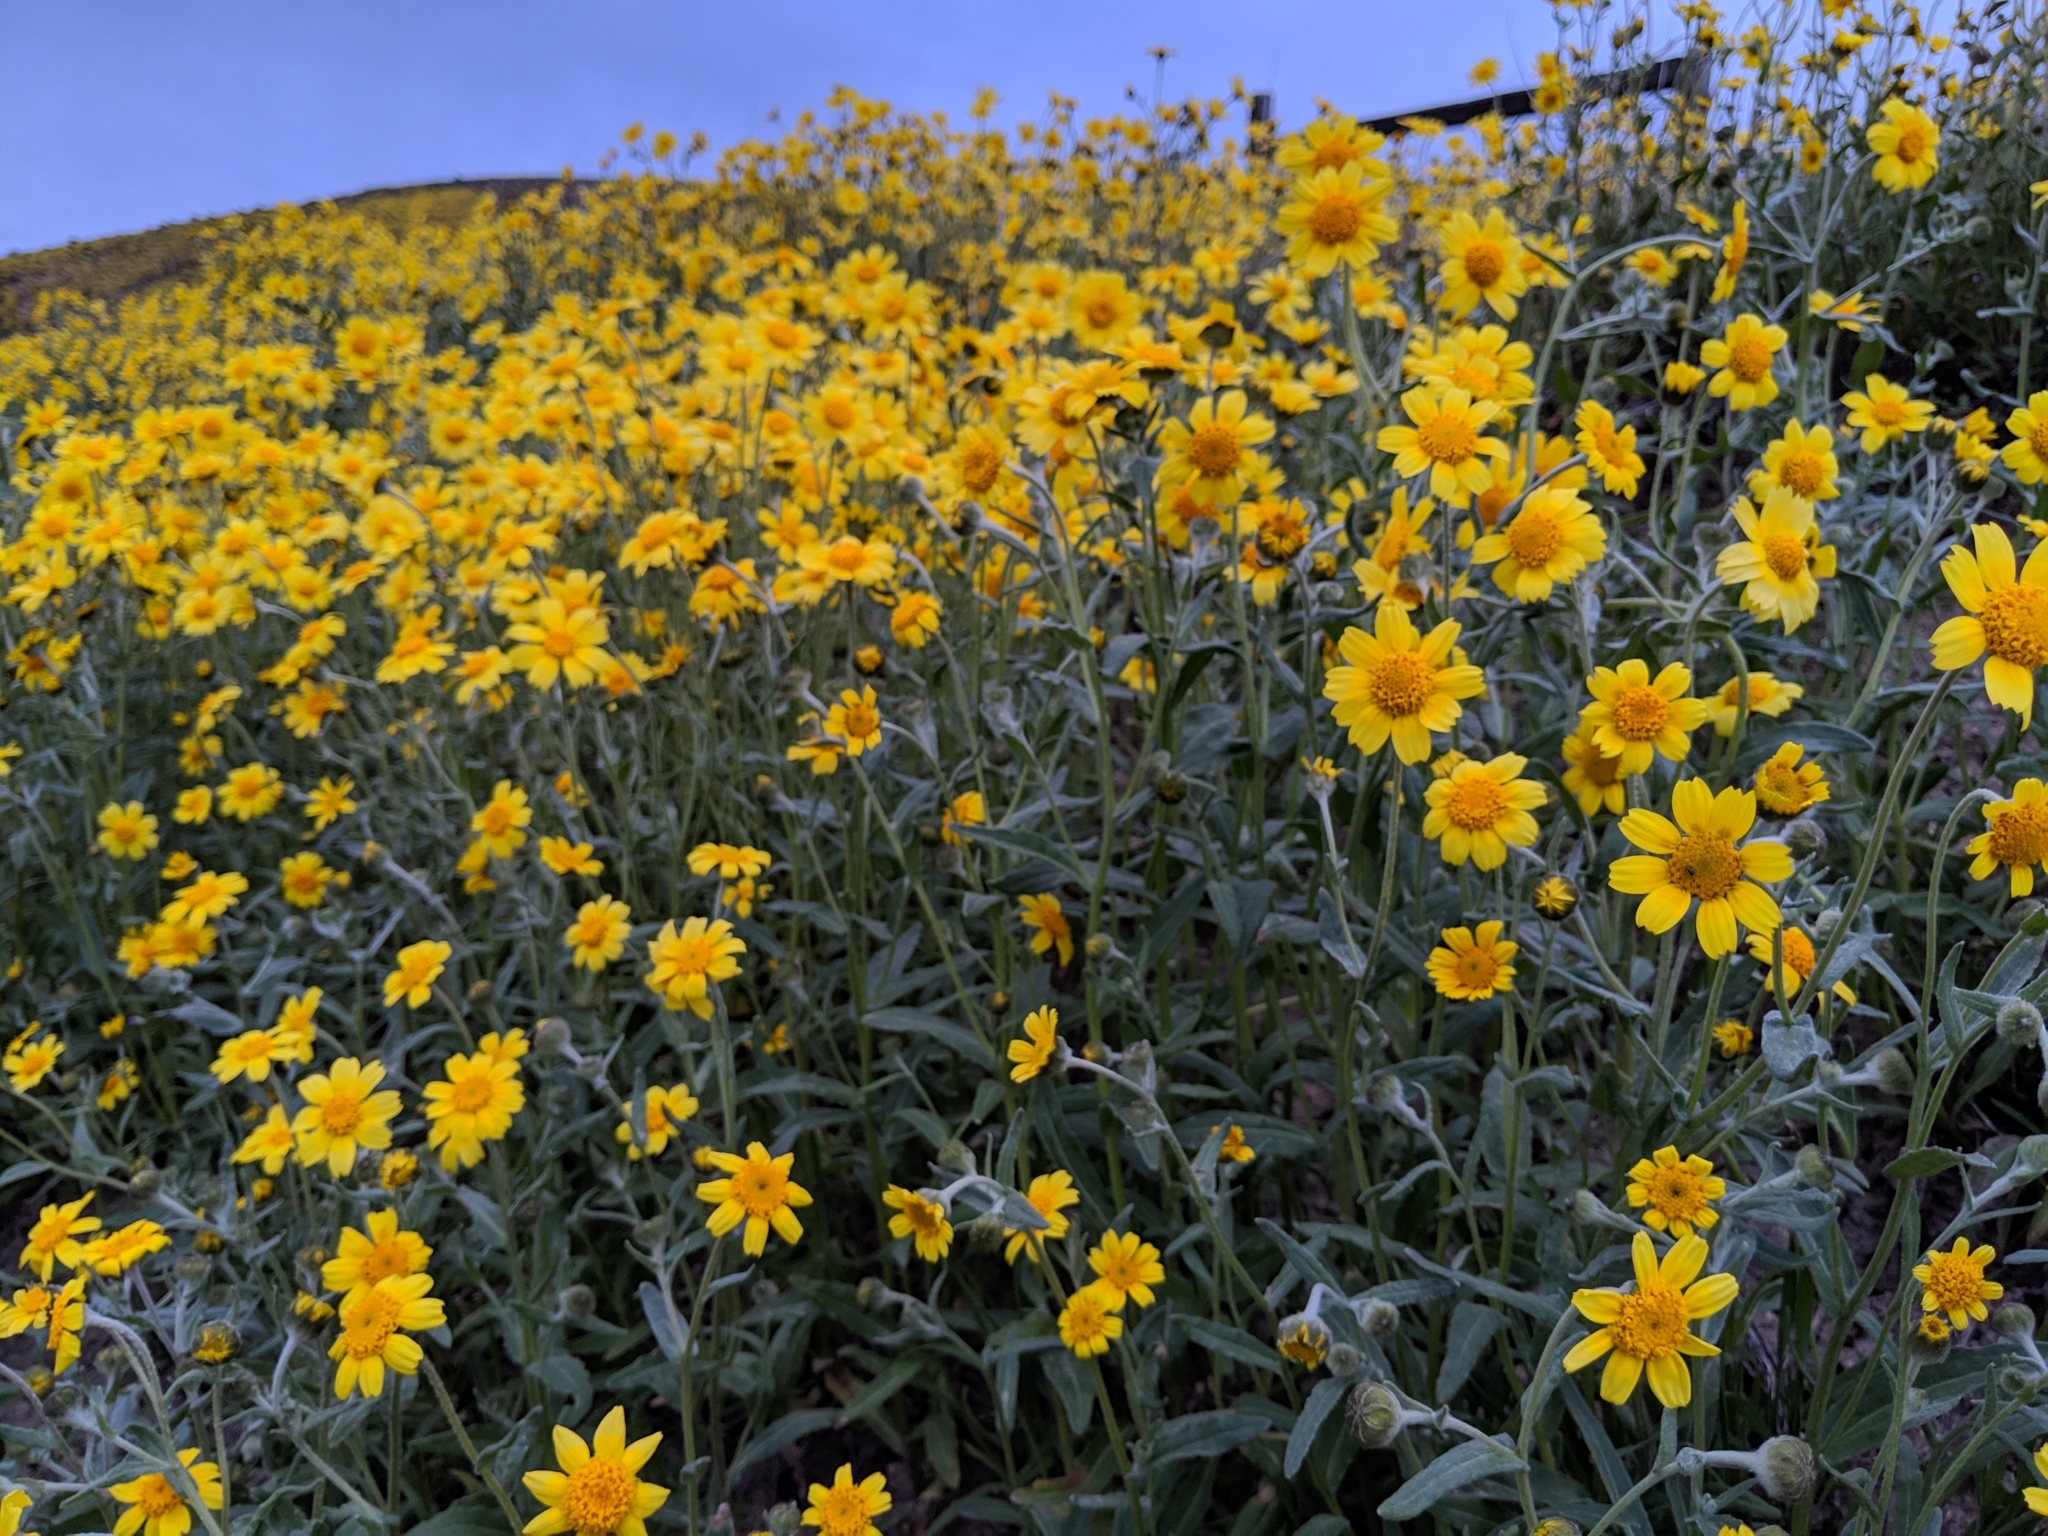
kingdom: Plantae
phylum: Tracheophyta
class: Magnoliopsida
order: Asterales
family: Asteraceae
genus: Monolopia
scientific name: Monolopia lanceolata
